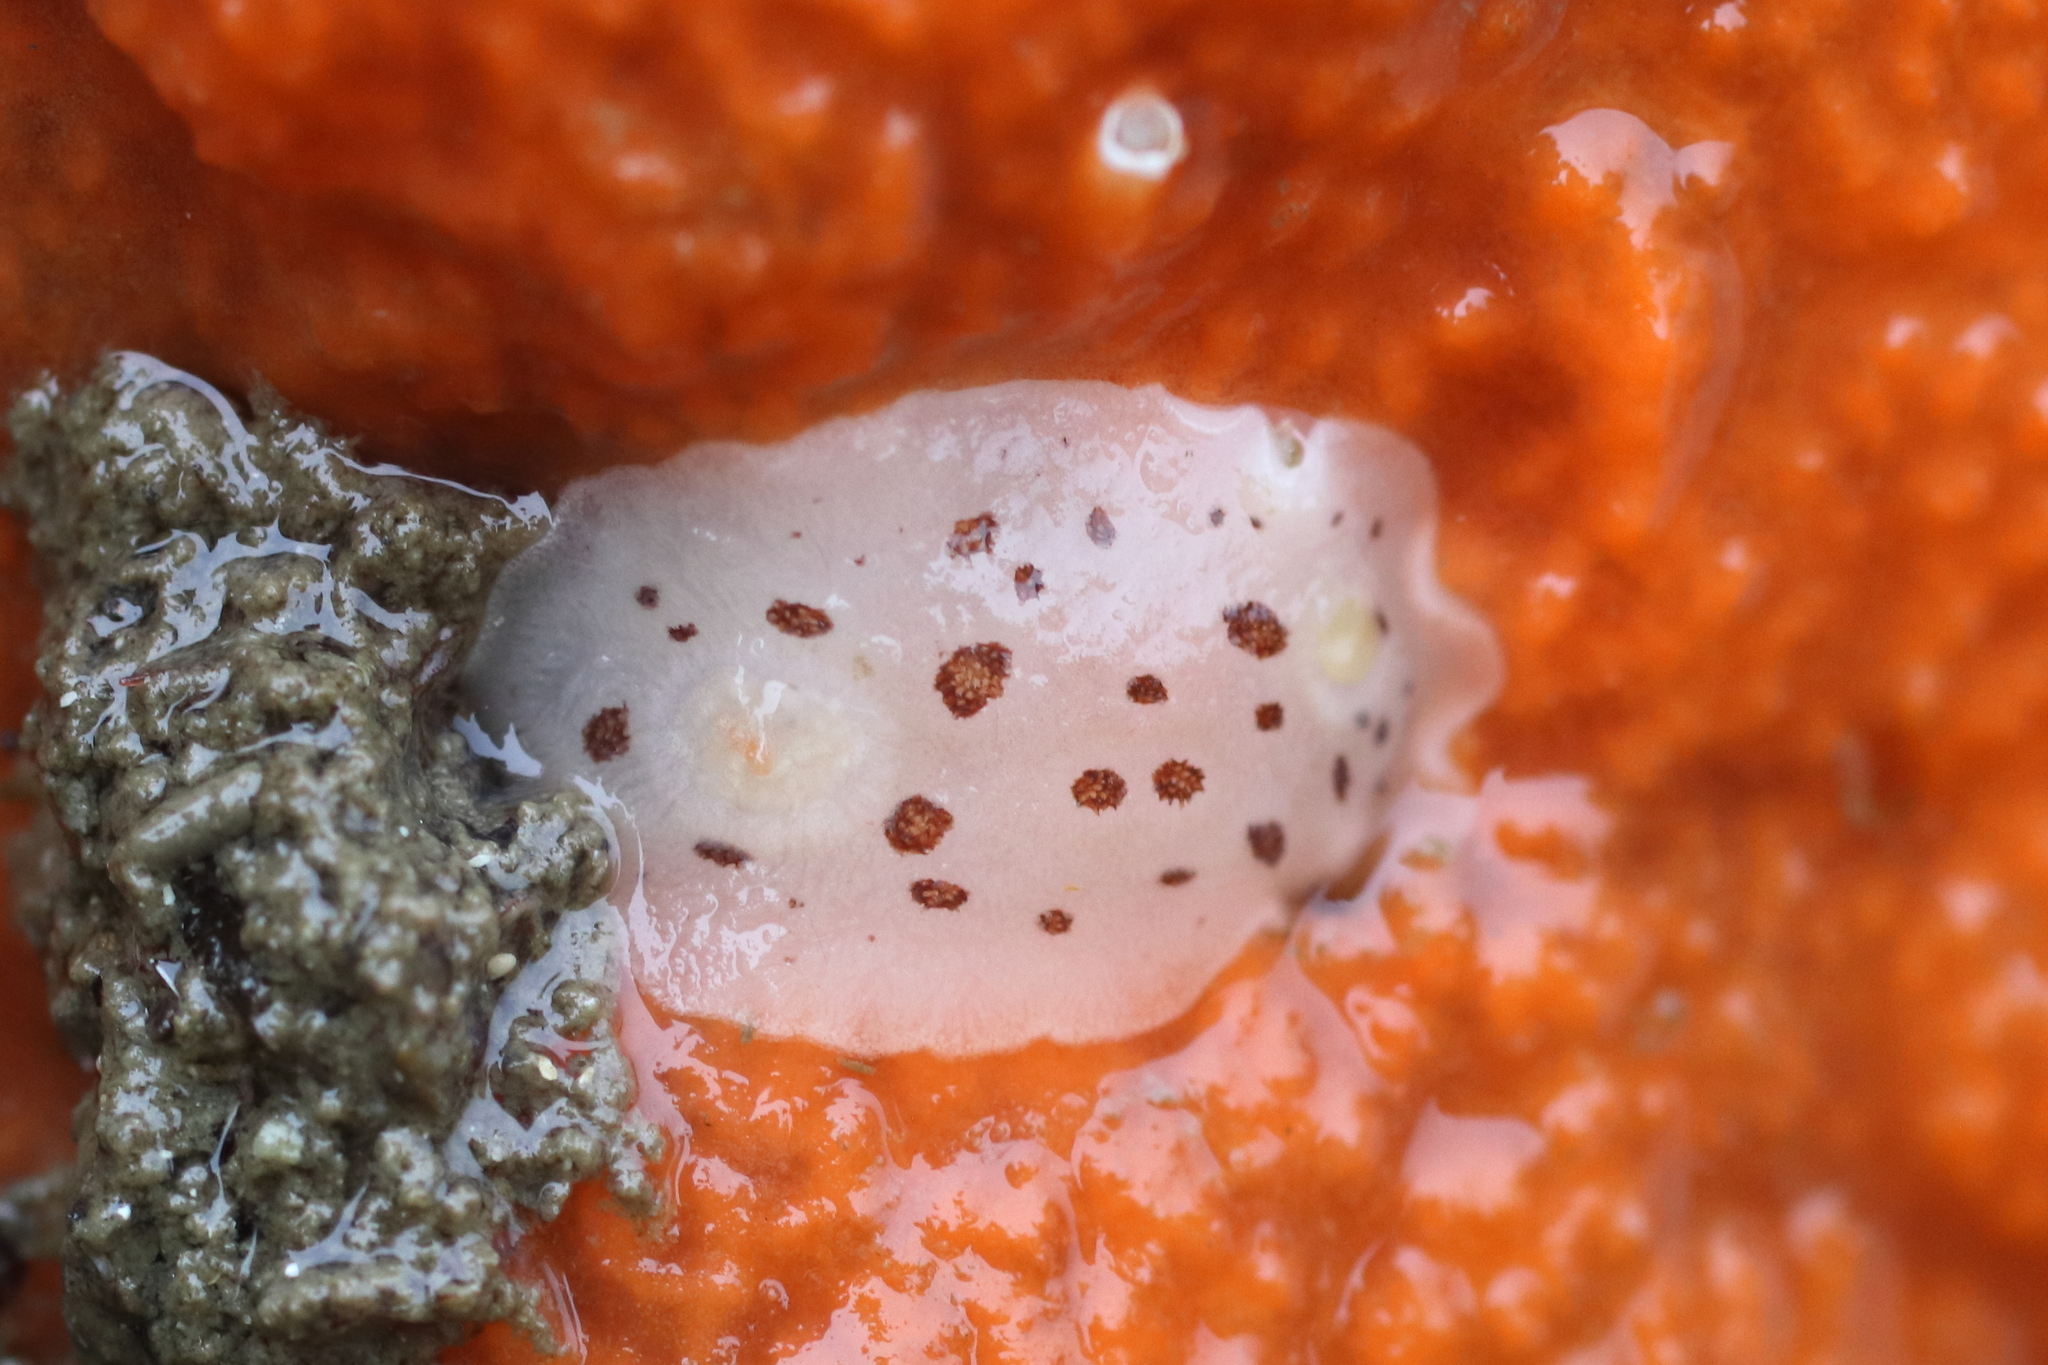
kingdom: Animalia
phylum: Mollusca
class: Gastropoda
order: Nudibranchia
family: Discodorididae
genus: Diaulula
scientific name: Diaulula odonoghuei
